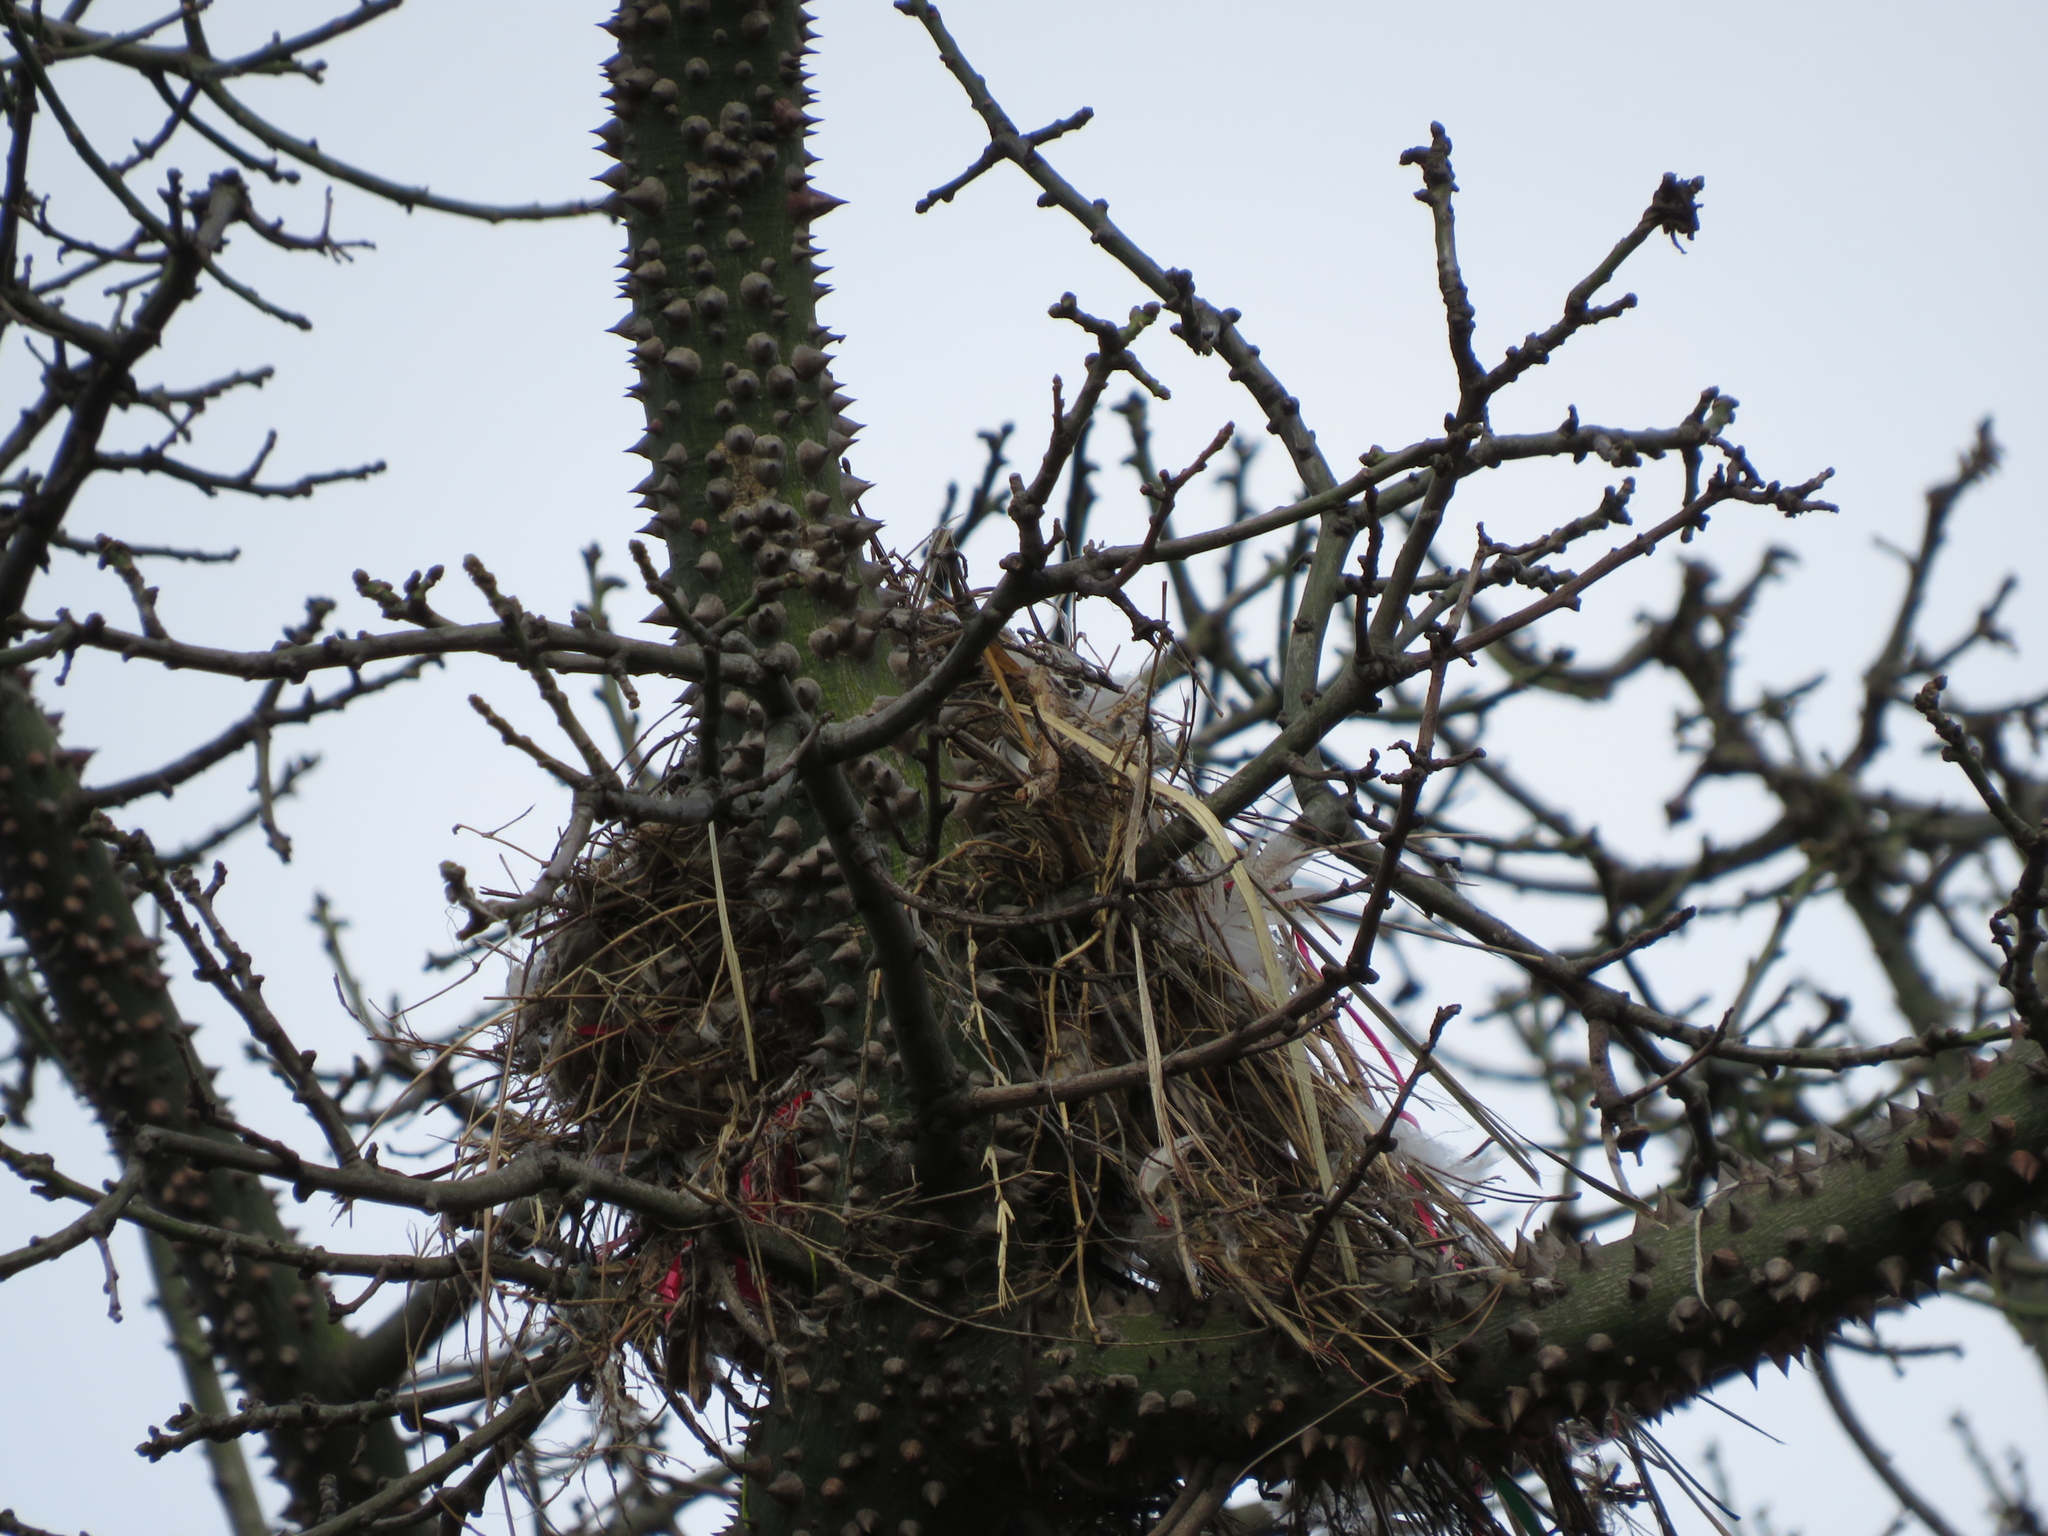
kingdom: Animalia
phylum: Chordata
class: Aves
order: Passeriformes
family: Tyrannidae
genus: Pitangus
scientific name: Pitangus sulphuratus
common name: Great kiskadee
